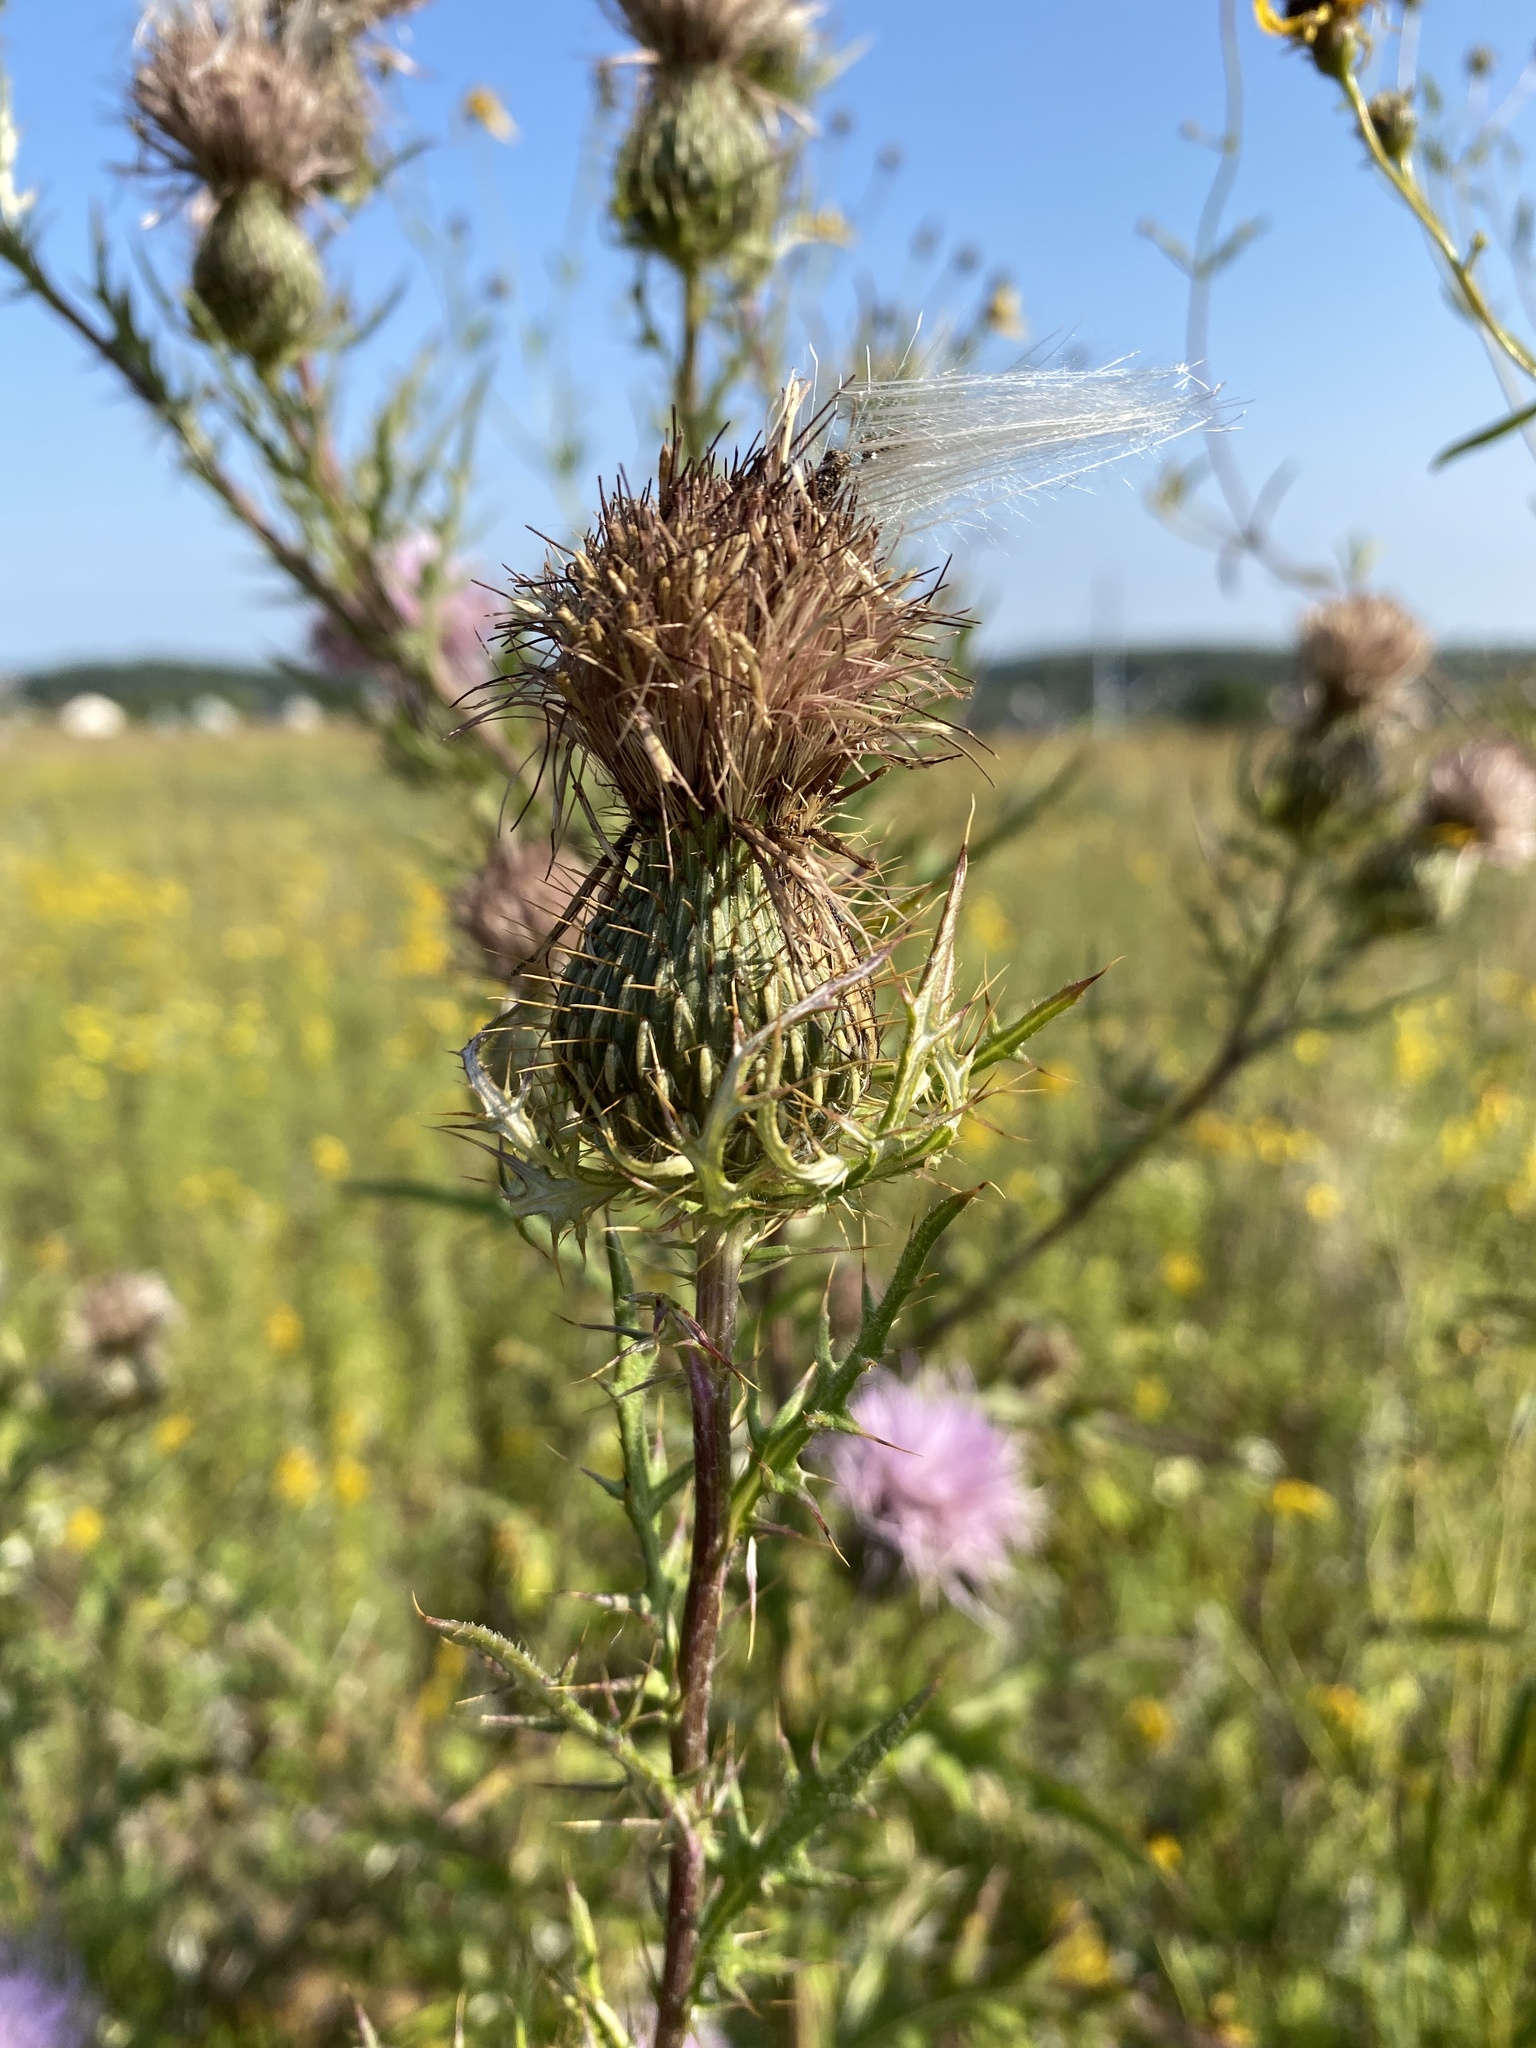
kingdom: Plantae
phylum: Tracheophyta
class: Magnoliopsida
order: Asterales
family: Asteraceae
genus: Cirsium
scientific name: Cirsium discolor
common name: Field thistle
